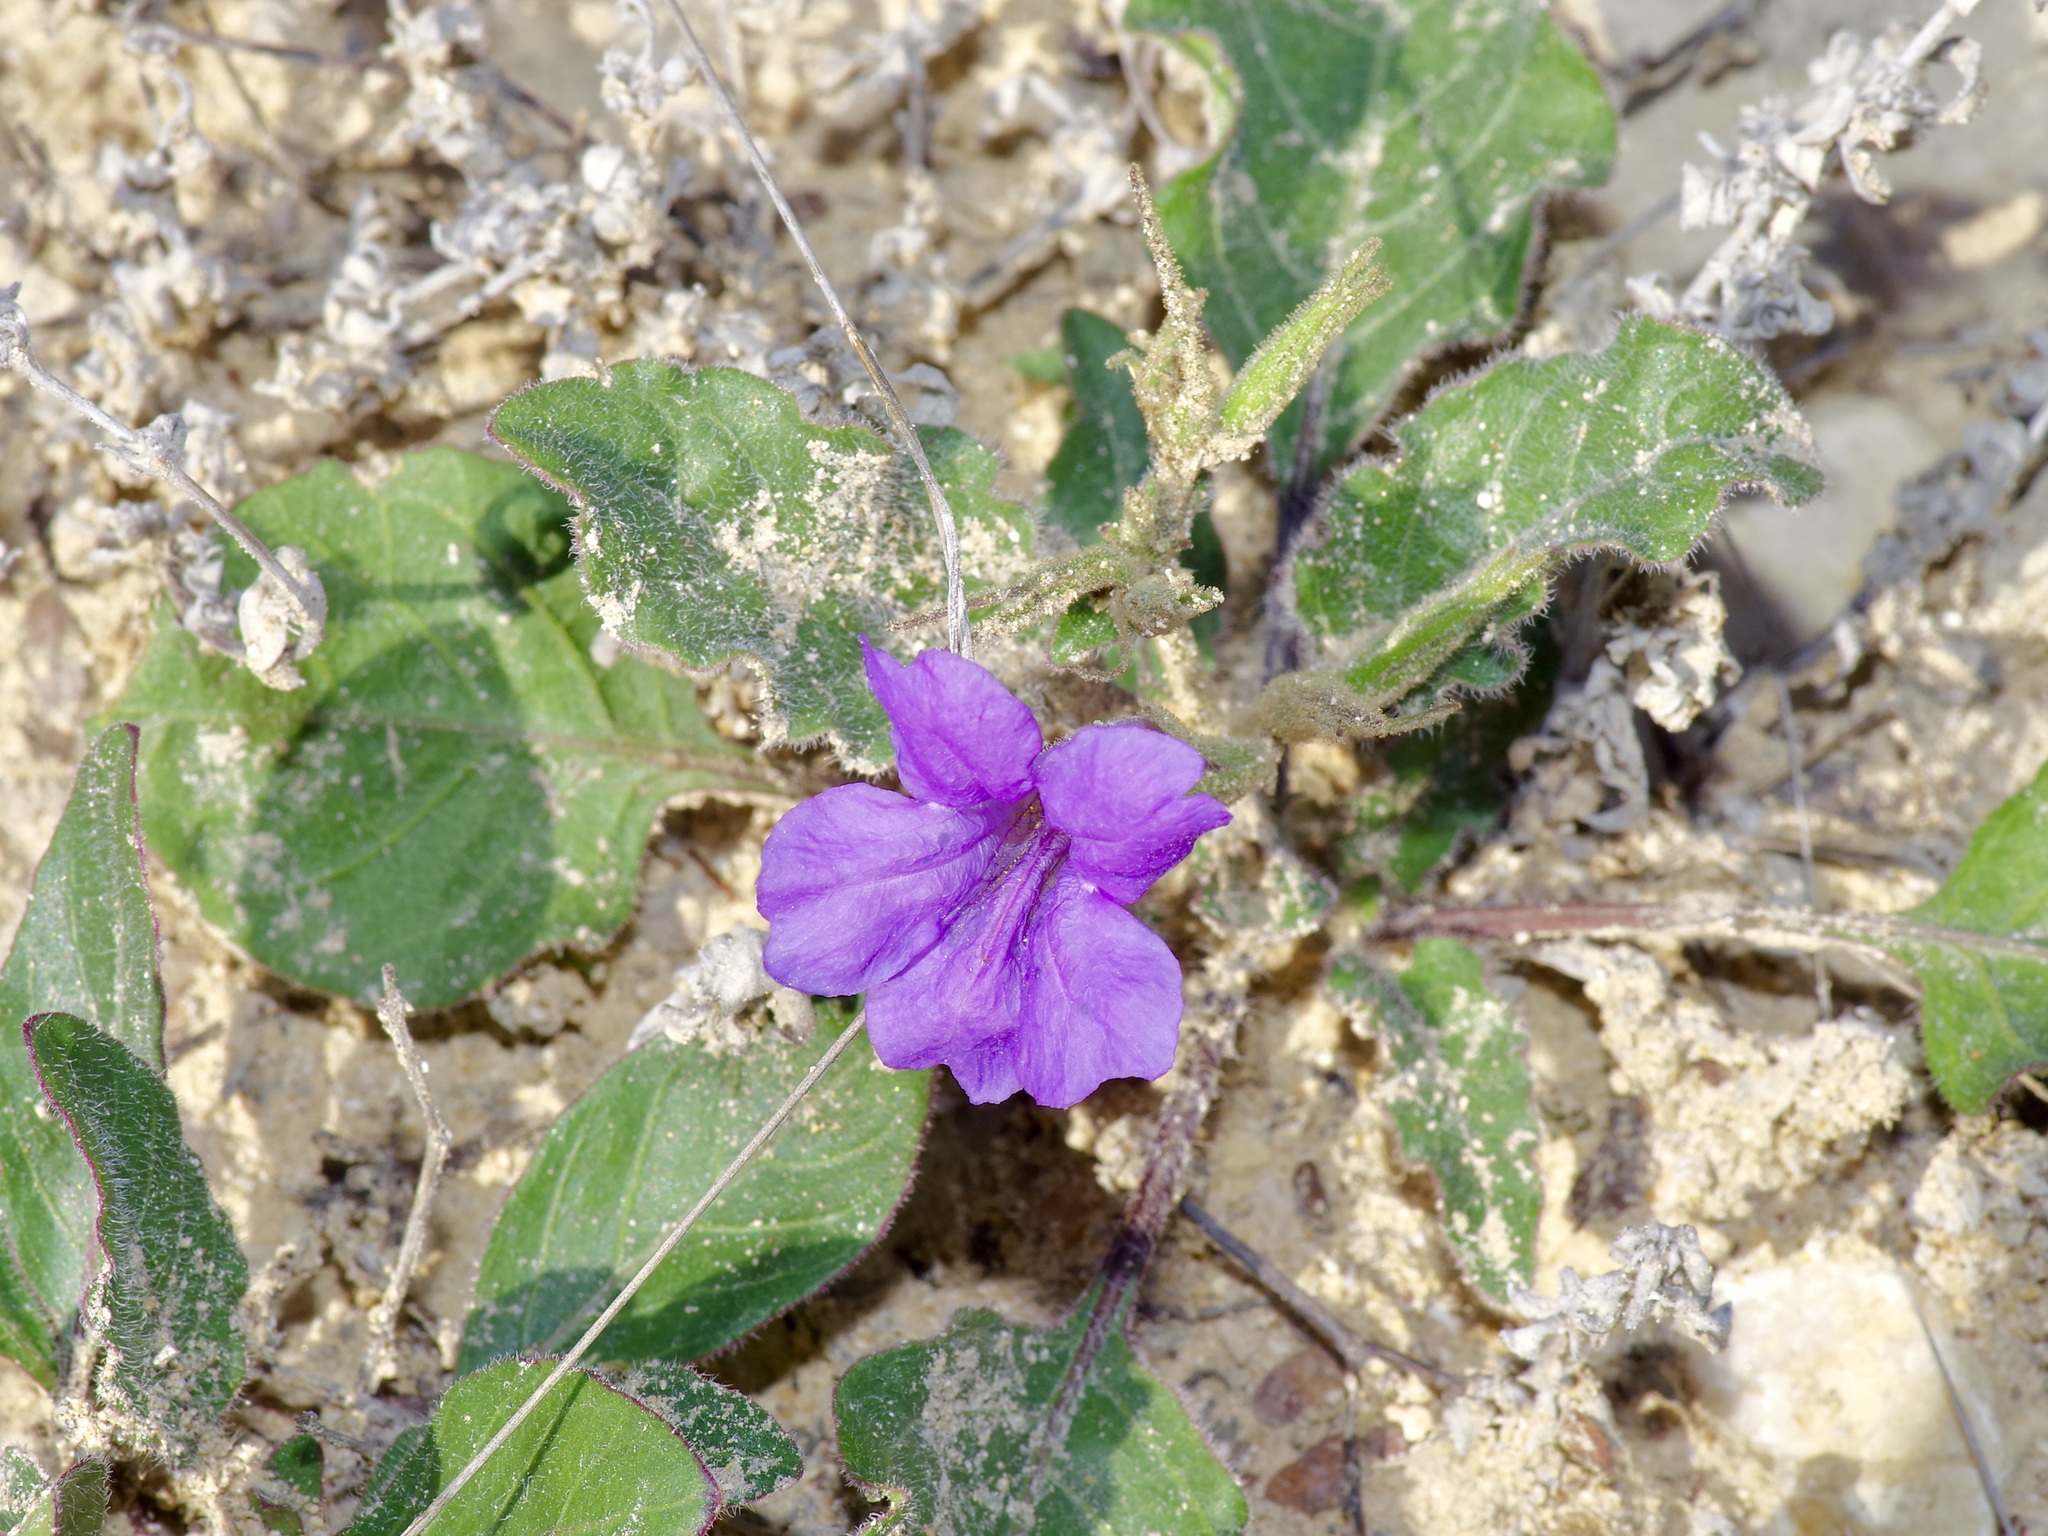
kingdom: Plantae
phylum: Tracheophyta
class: Magnoliopsida
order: Lamiales
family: Acanthaceae
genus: Ruellia
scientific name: Ruellia corzoi
